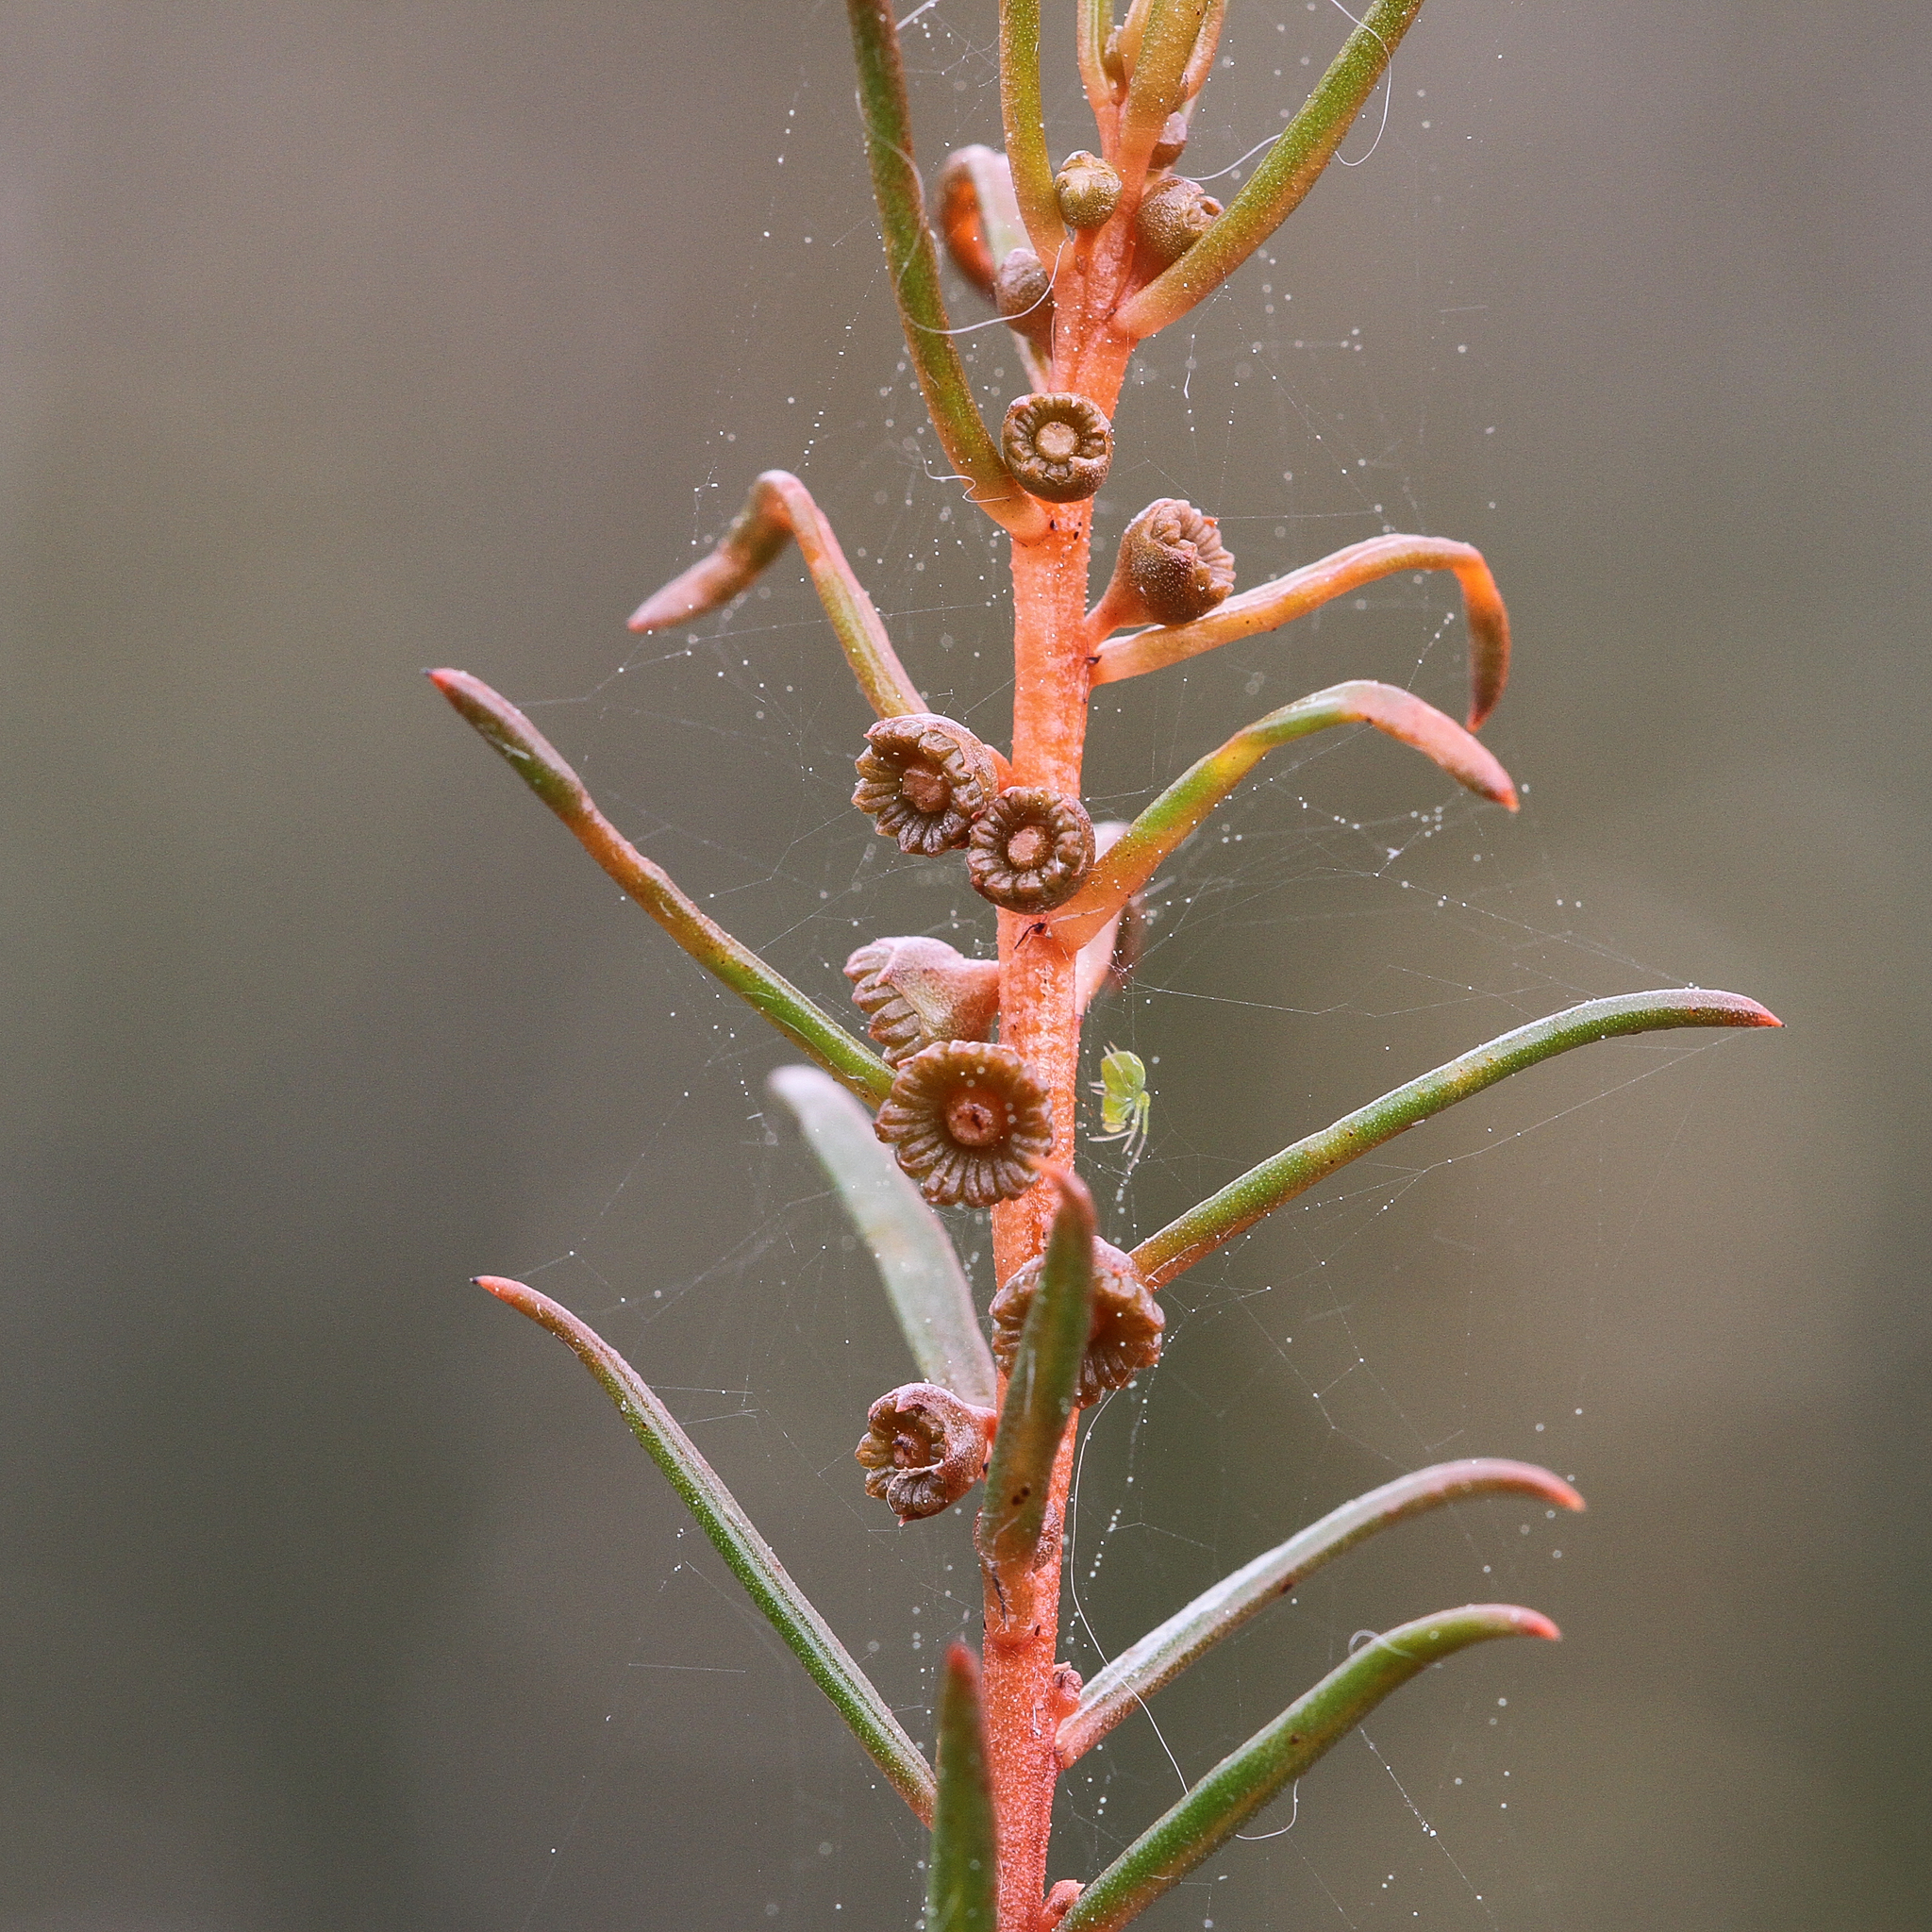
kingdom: Plantae
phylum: Tracheophyta
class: Magnoliopsida
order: Brassicales
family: Gyrostemonaceae
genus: Gyrostemon
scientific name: Gyrostemon australasicus
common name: Wheelfruit
